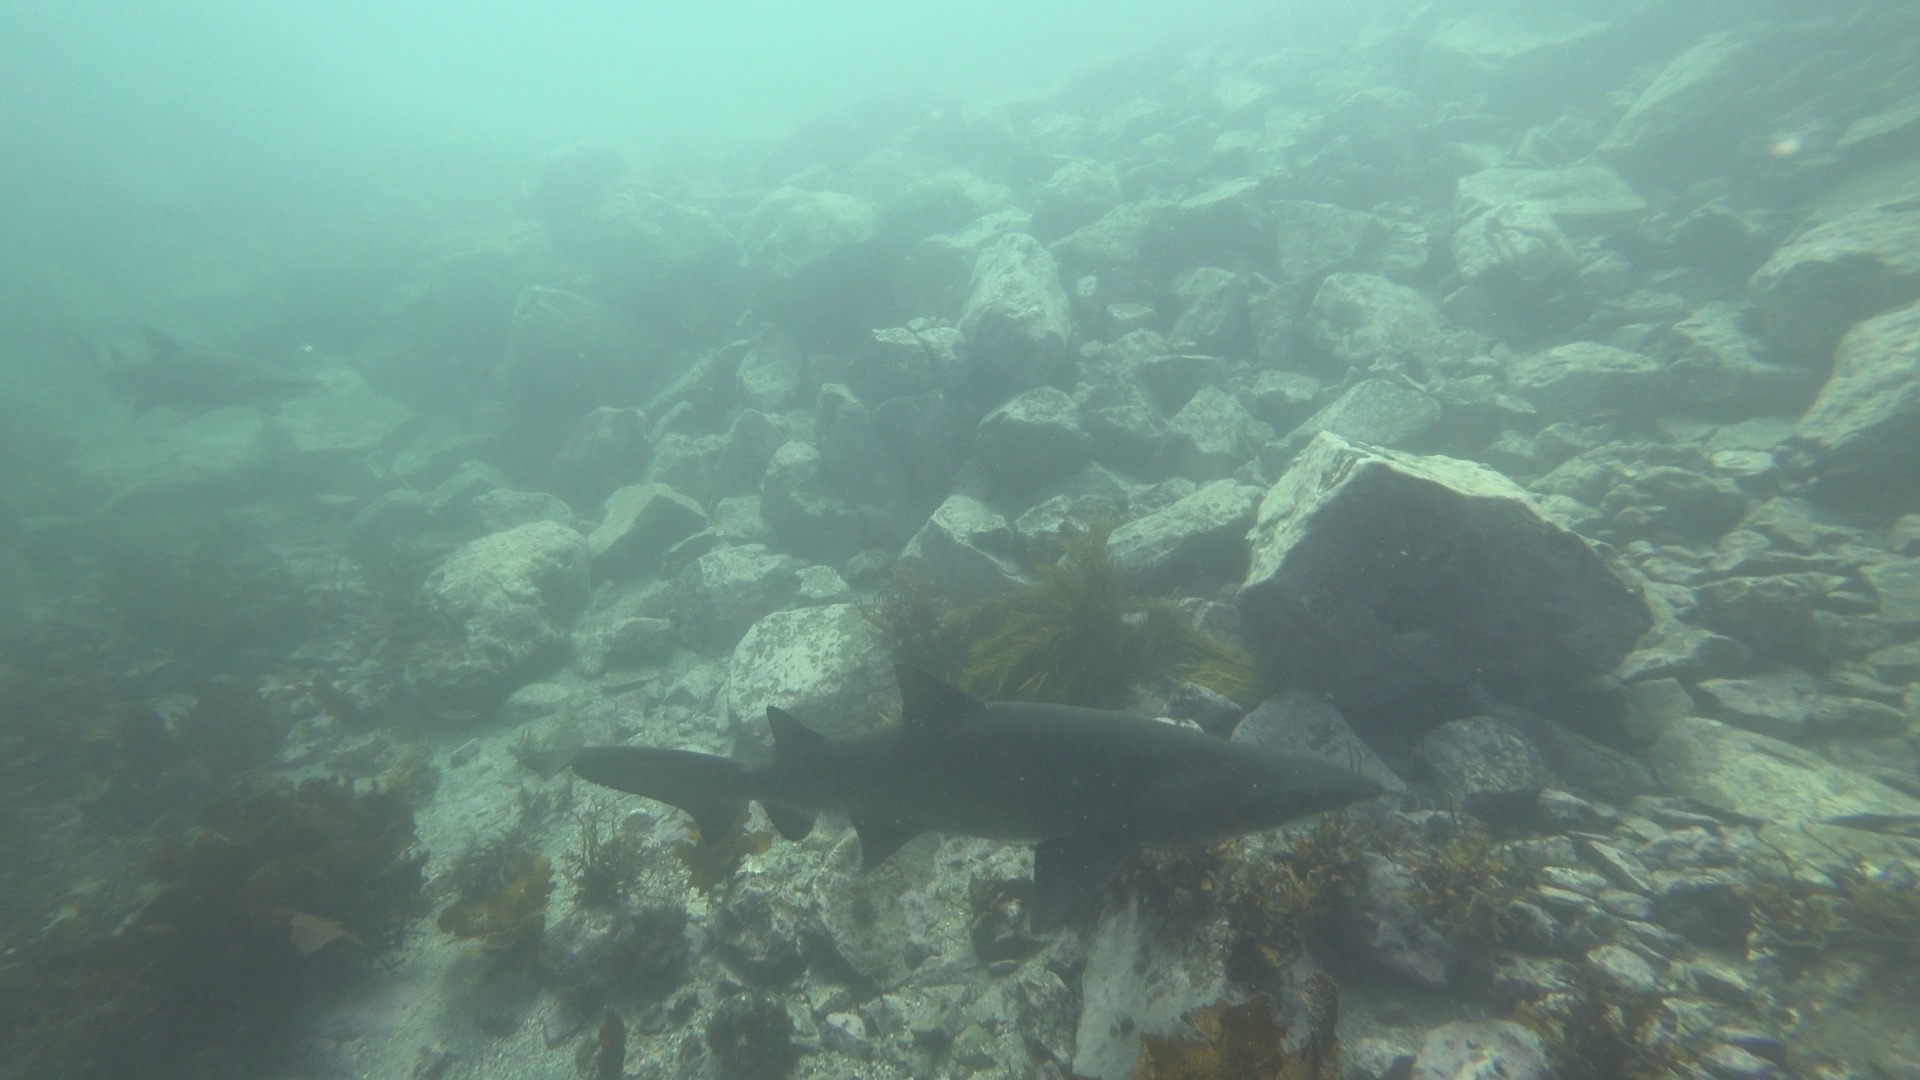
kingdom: Animalia
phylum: Chordata
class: Elasmobranchii
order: Lamniformes
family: Odontaspididae
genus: Carcharias
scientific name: Carcharias taurus
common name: Sand shark
